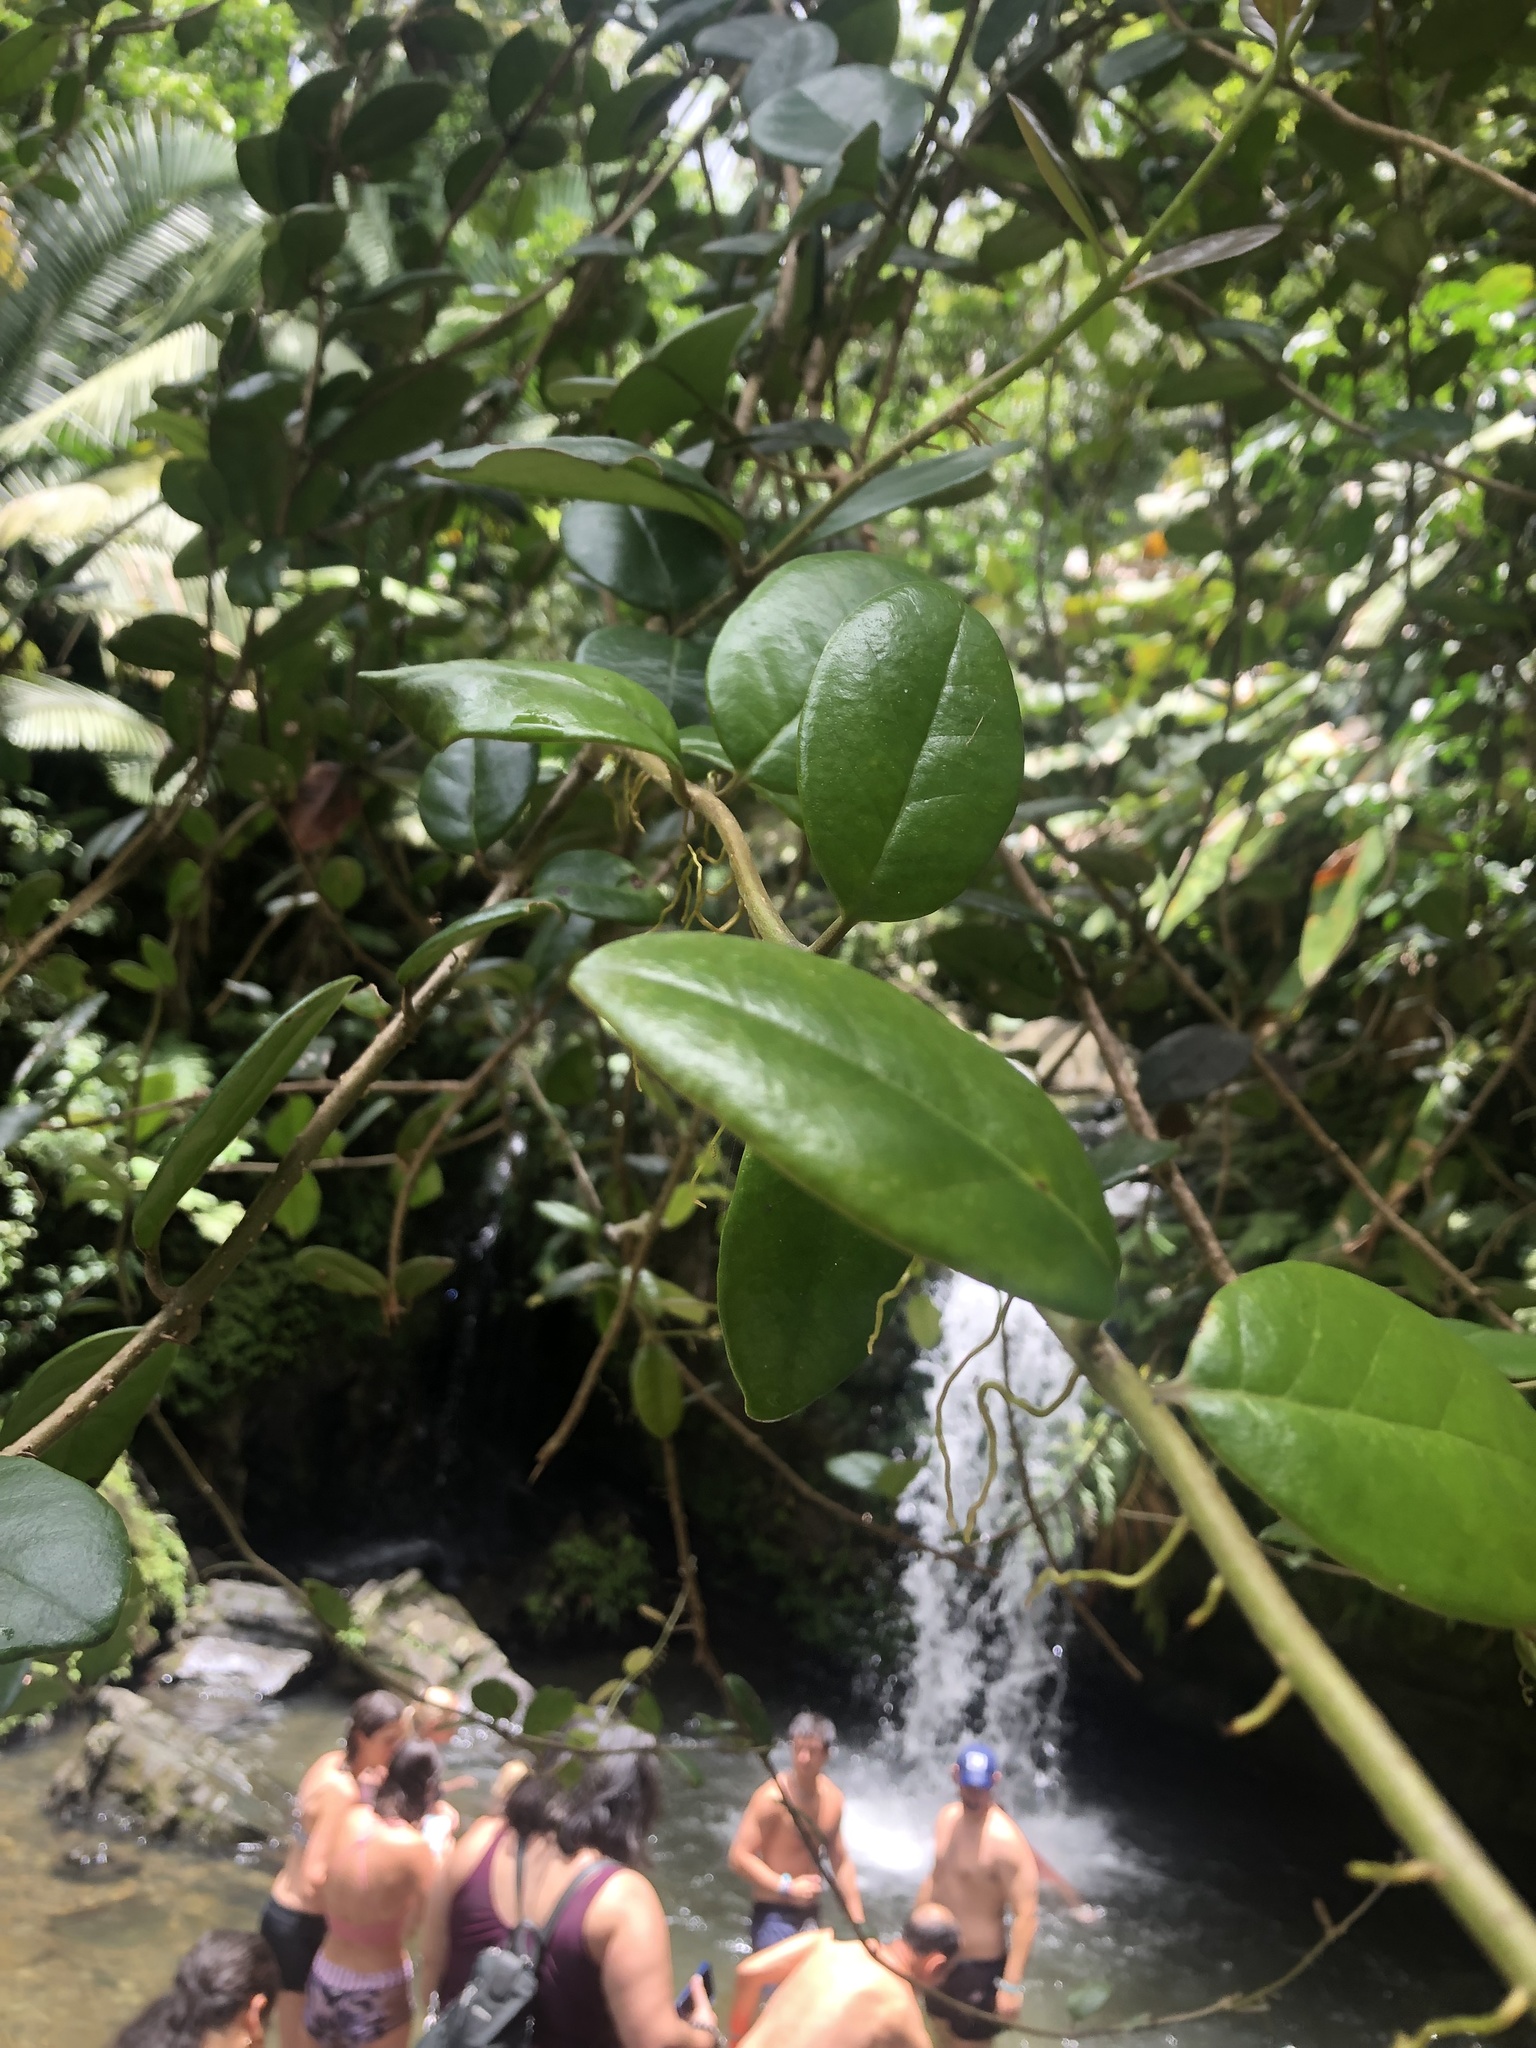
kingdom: Plantae
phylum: Tracheophyta
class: Magnoliopsida
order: Lamiales
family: Schlegeliaceae
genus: Schlegelia
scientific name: Schlegelia brachyantha
